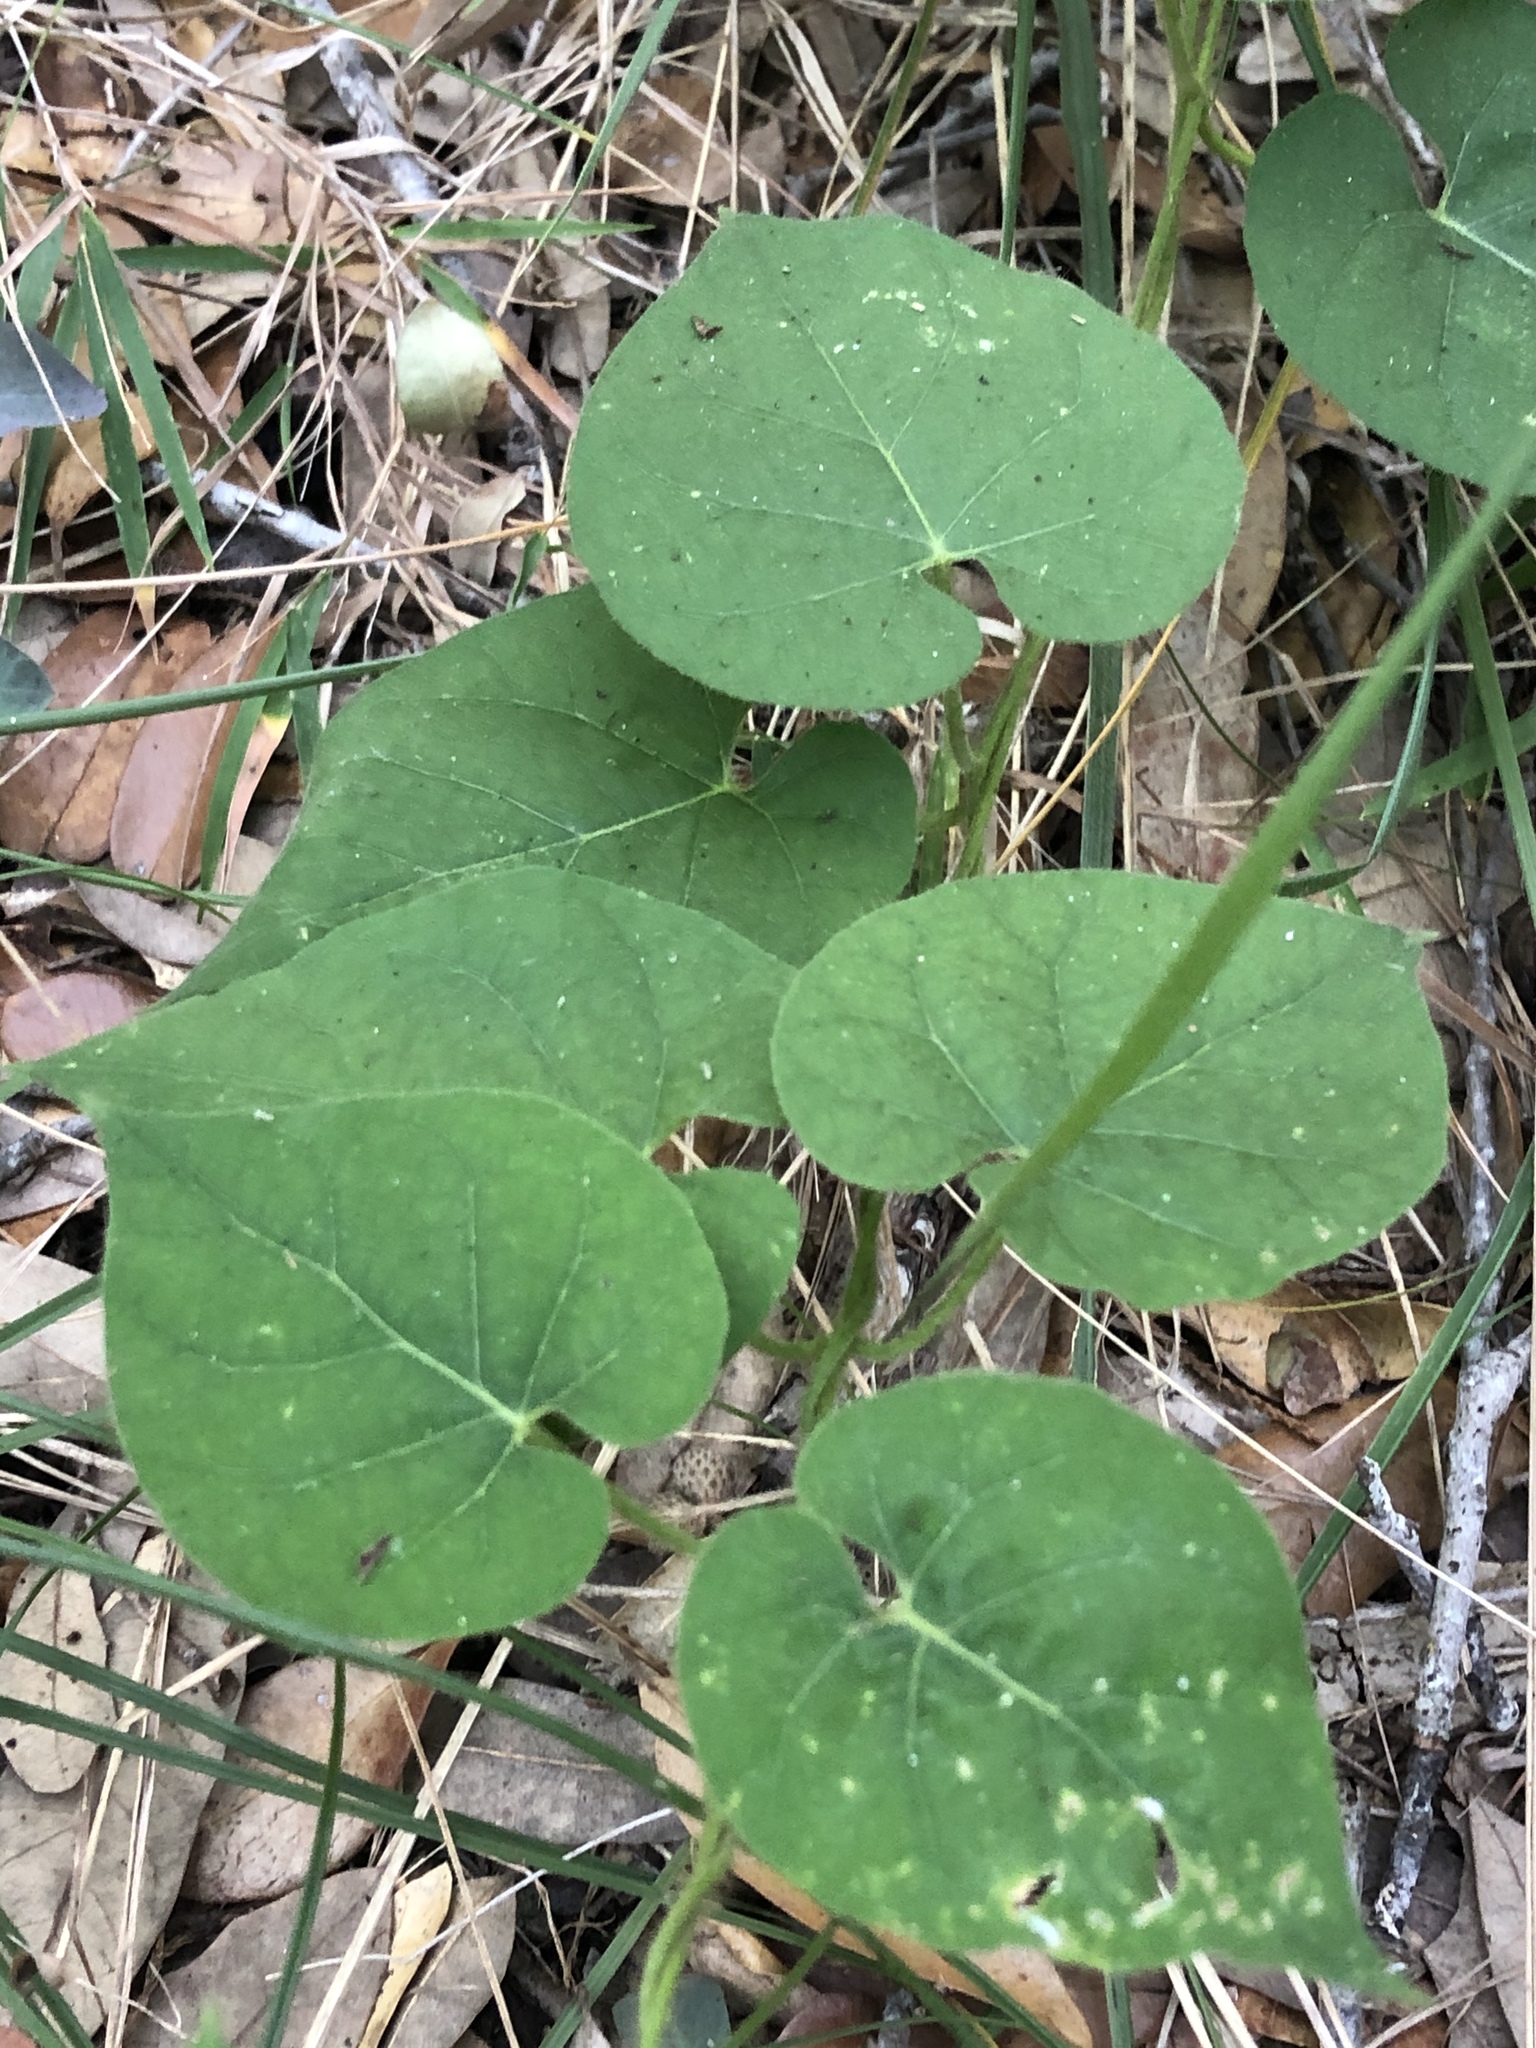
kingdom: Plantae
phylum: Tracheophyta
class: Magnoliopsida
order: Gentianales
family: Apocynaceae
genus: Gonolobus
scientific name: Gonolobus suberosus
